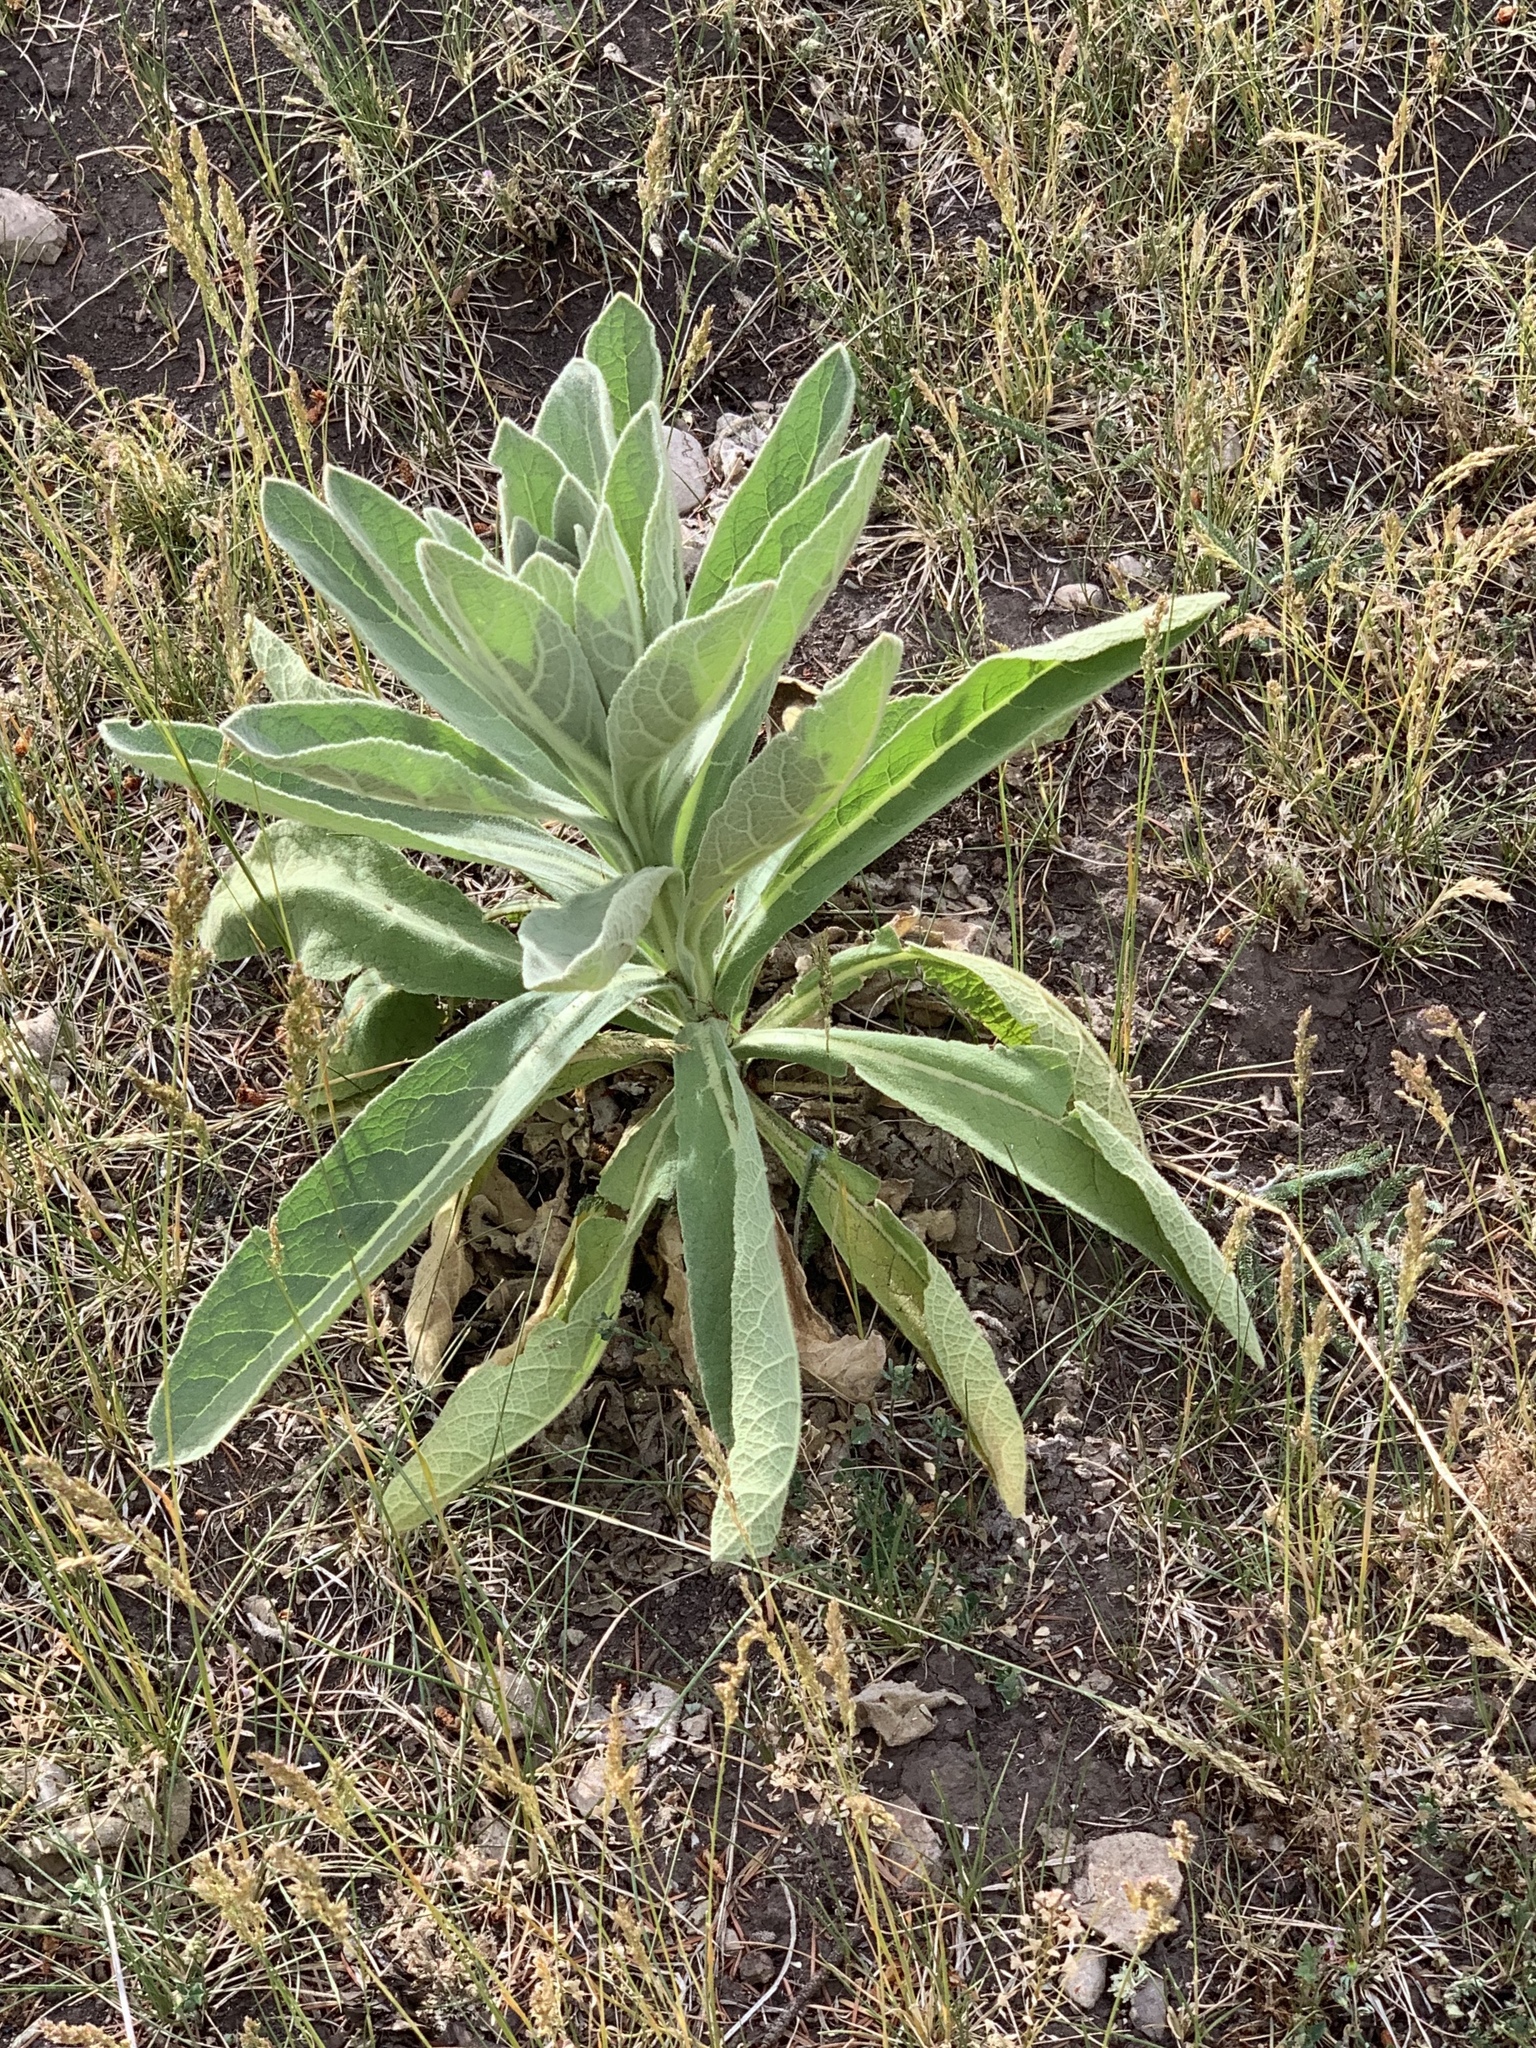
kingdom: Plantae
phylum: Tracheophyta
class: Magnoliopsida
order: Lamiales
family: Scrophulariaceae
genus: Verbascum
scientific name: Verbascum thapsus
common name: Common mullein
